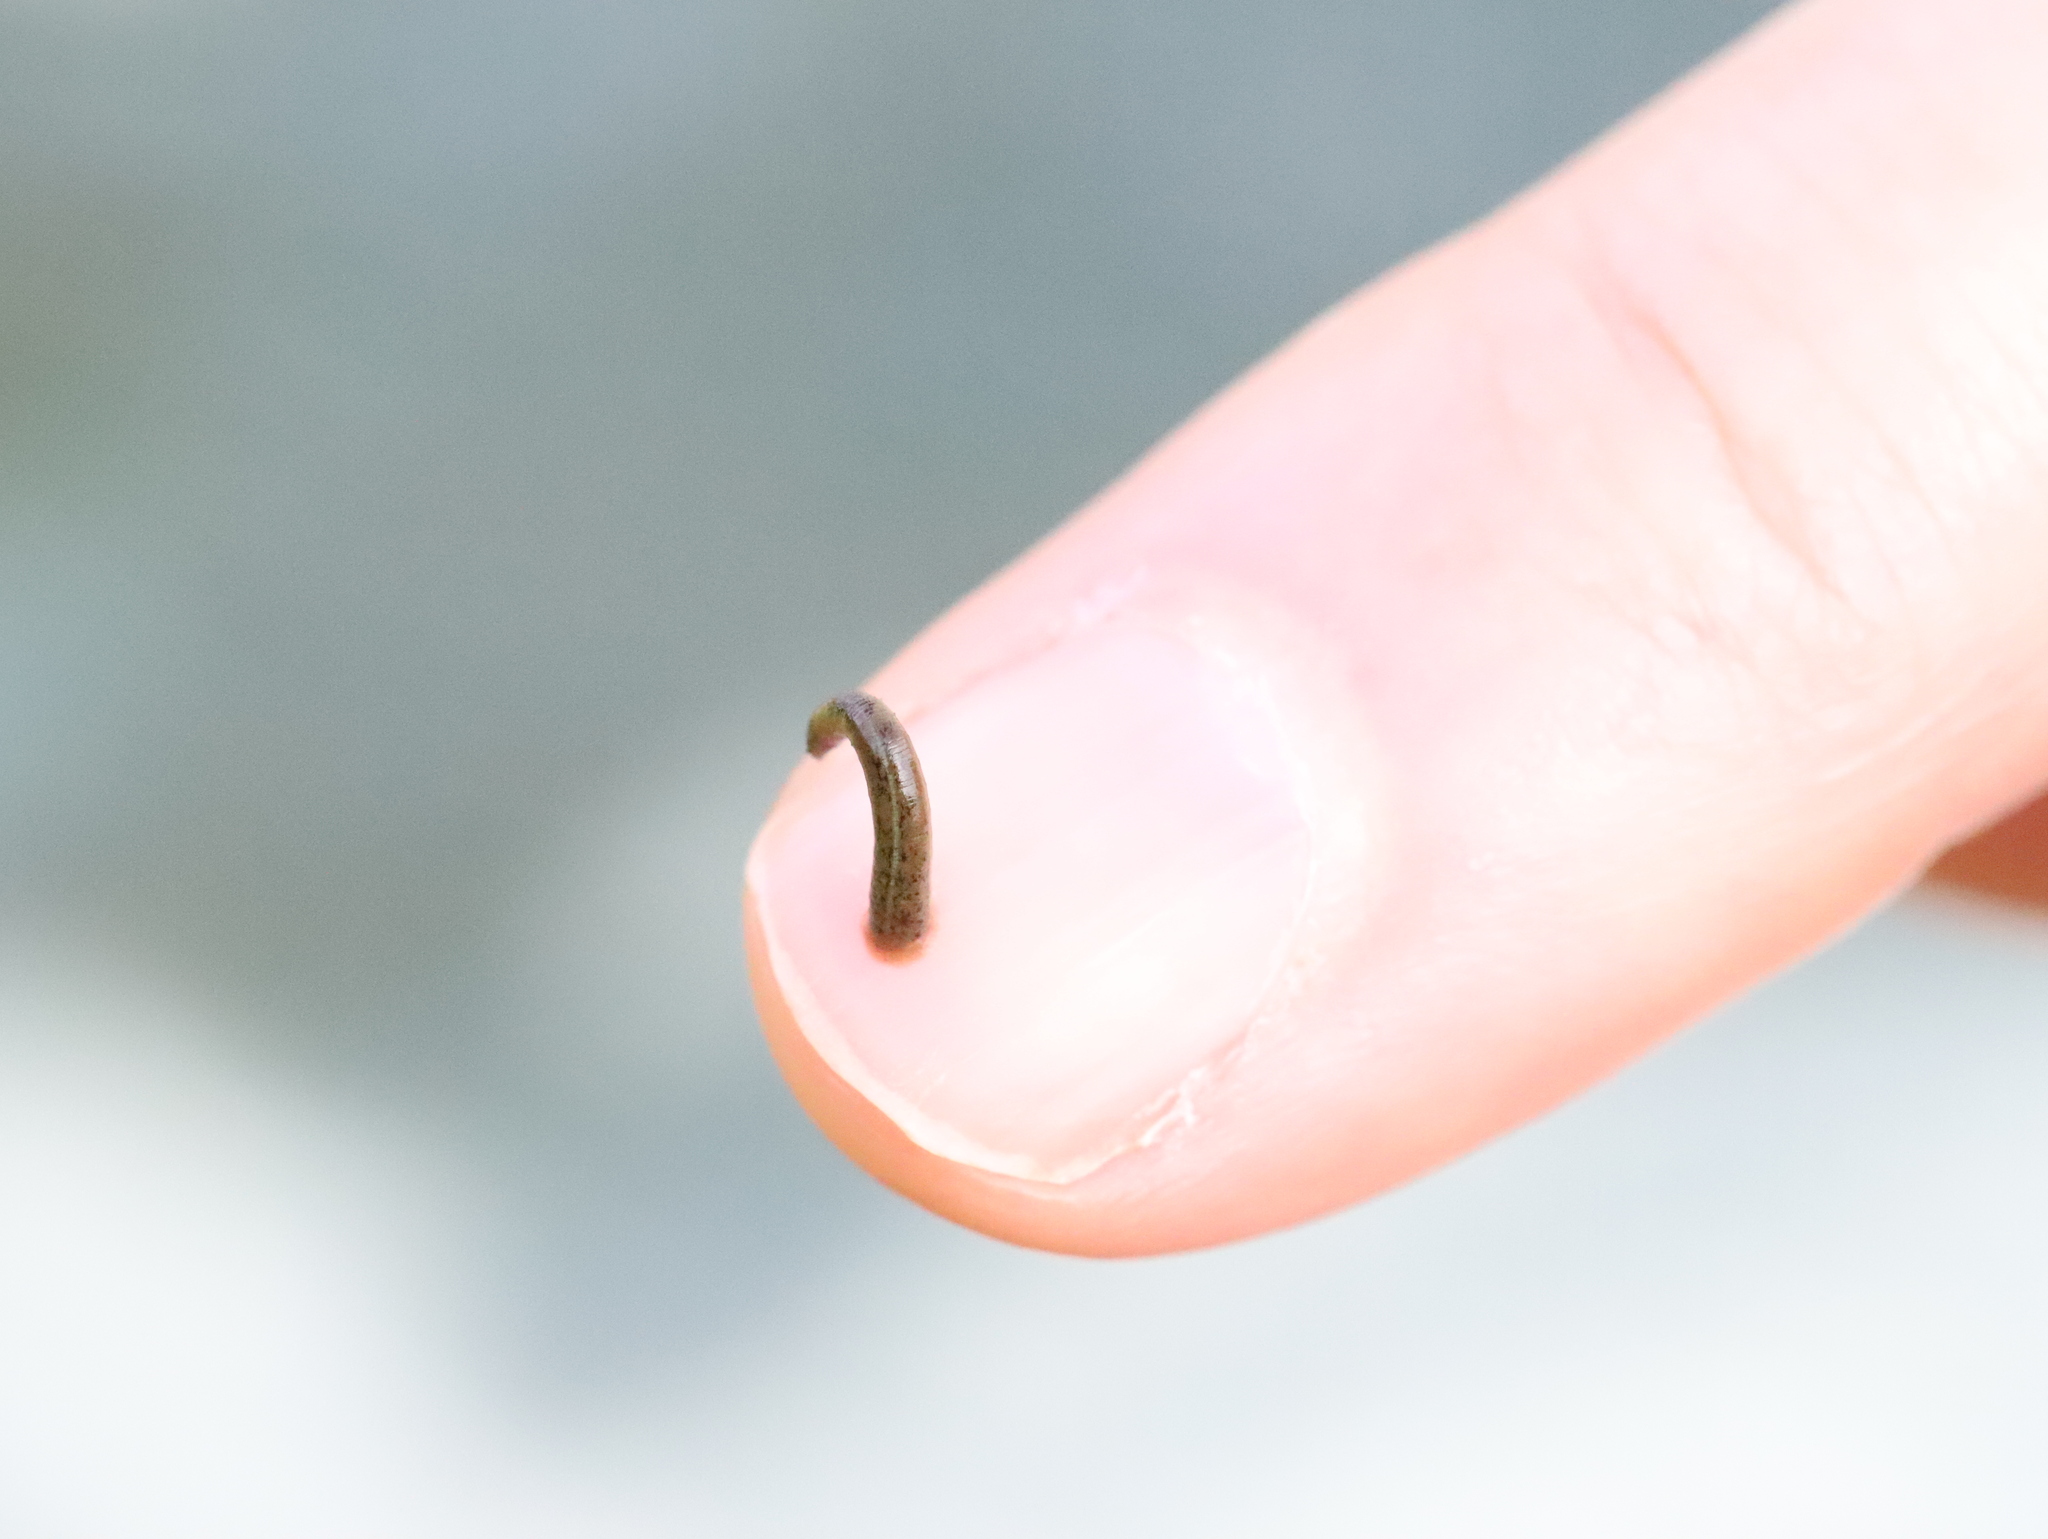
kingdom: Animalia
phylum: Annelida
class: Clitellata
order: Arhynchobdellida
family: Haemadipsidae
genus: Haemadipsa
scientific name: Haemadipsa zeylanica
